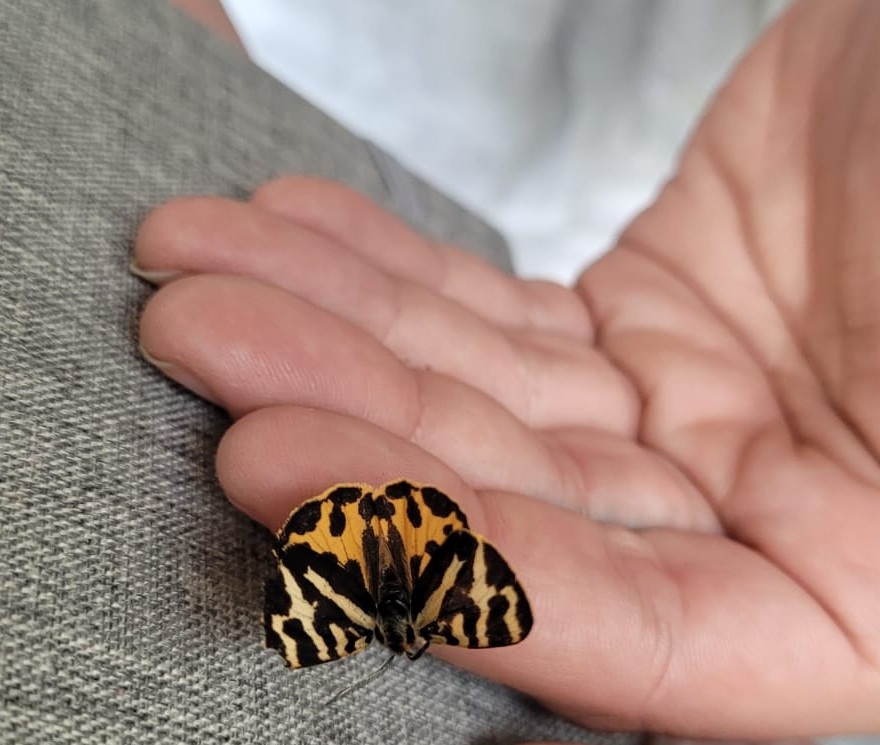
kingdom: Animalia
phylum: Arthropoda
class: Insecta
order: Lepidoptera
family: Erebidae
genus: Parasemia
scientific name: Parasemia plantaginis
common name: Wood tiger
